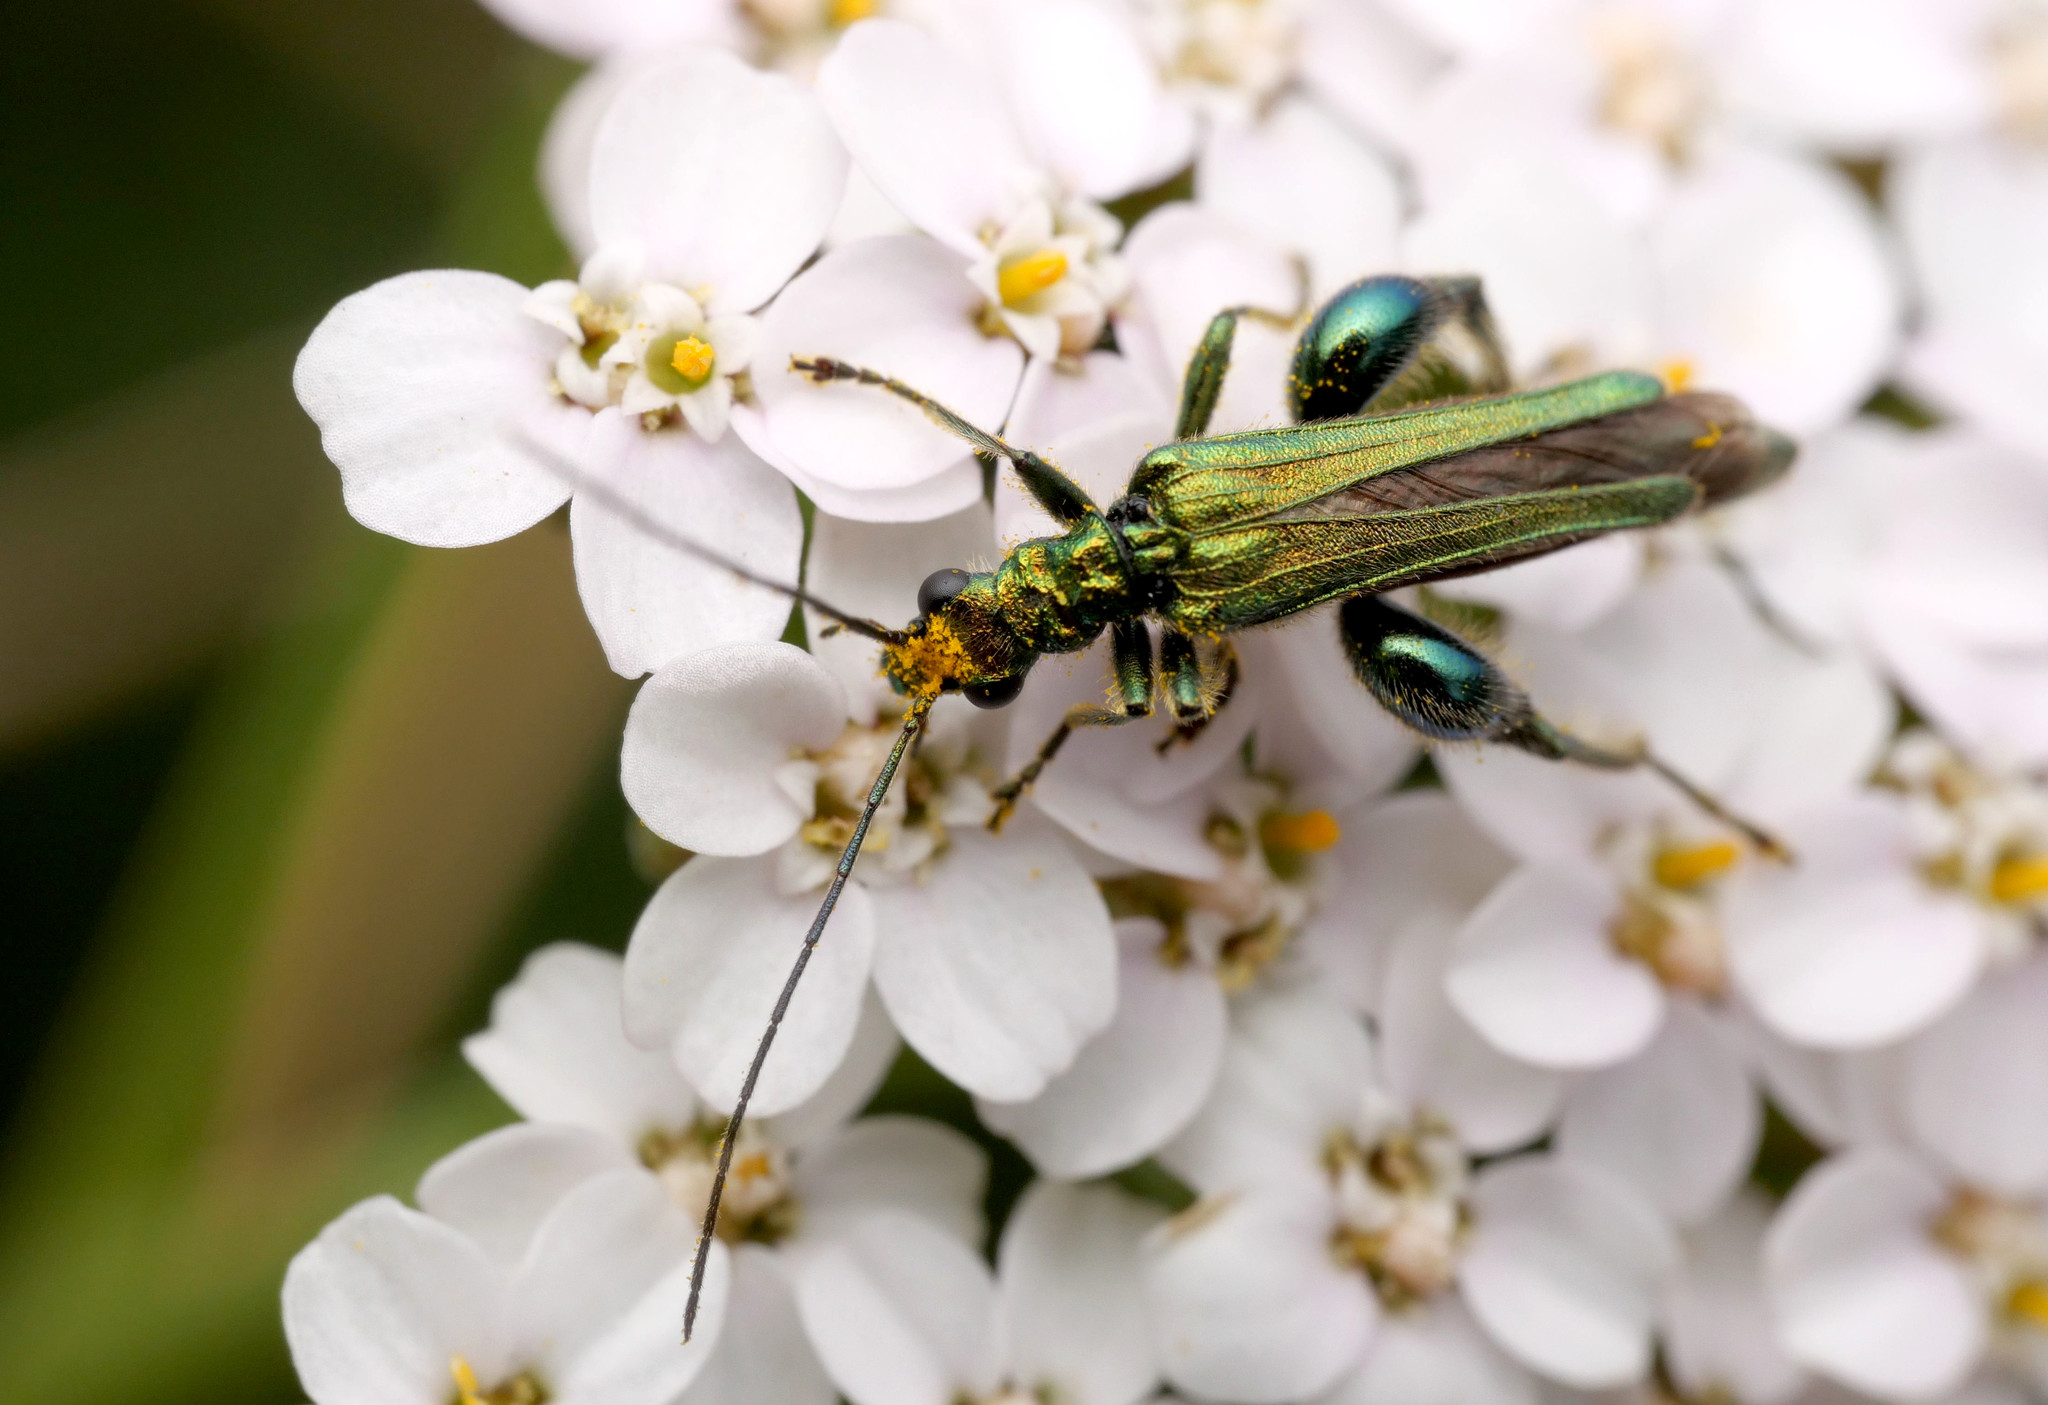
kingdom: Animalia
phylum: Arthropoda
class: Insecta
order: Coleoptera
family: Oedemeridae
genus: Oedemera
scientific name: Oedemera nobilis
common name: Swollen-thighed beetle
